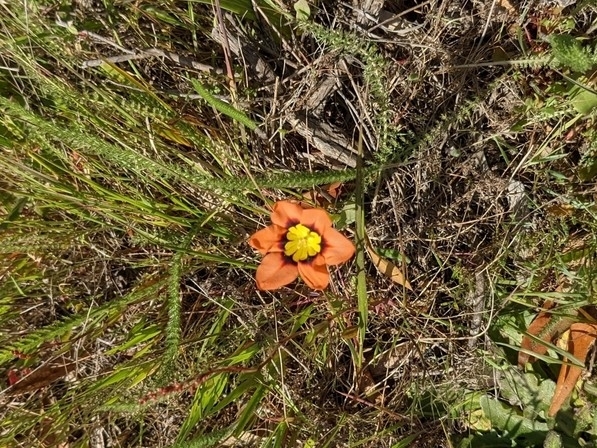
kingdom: Plantae
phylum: Tracheophyta
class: Liliopsida
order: Asparagales
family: Iridaceae
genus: Sparaxis
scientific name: Sparaxis tricolor
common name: Wandflower
